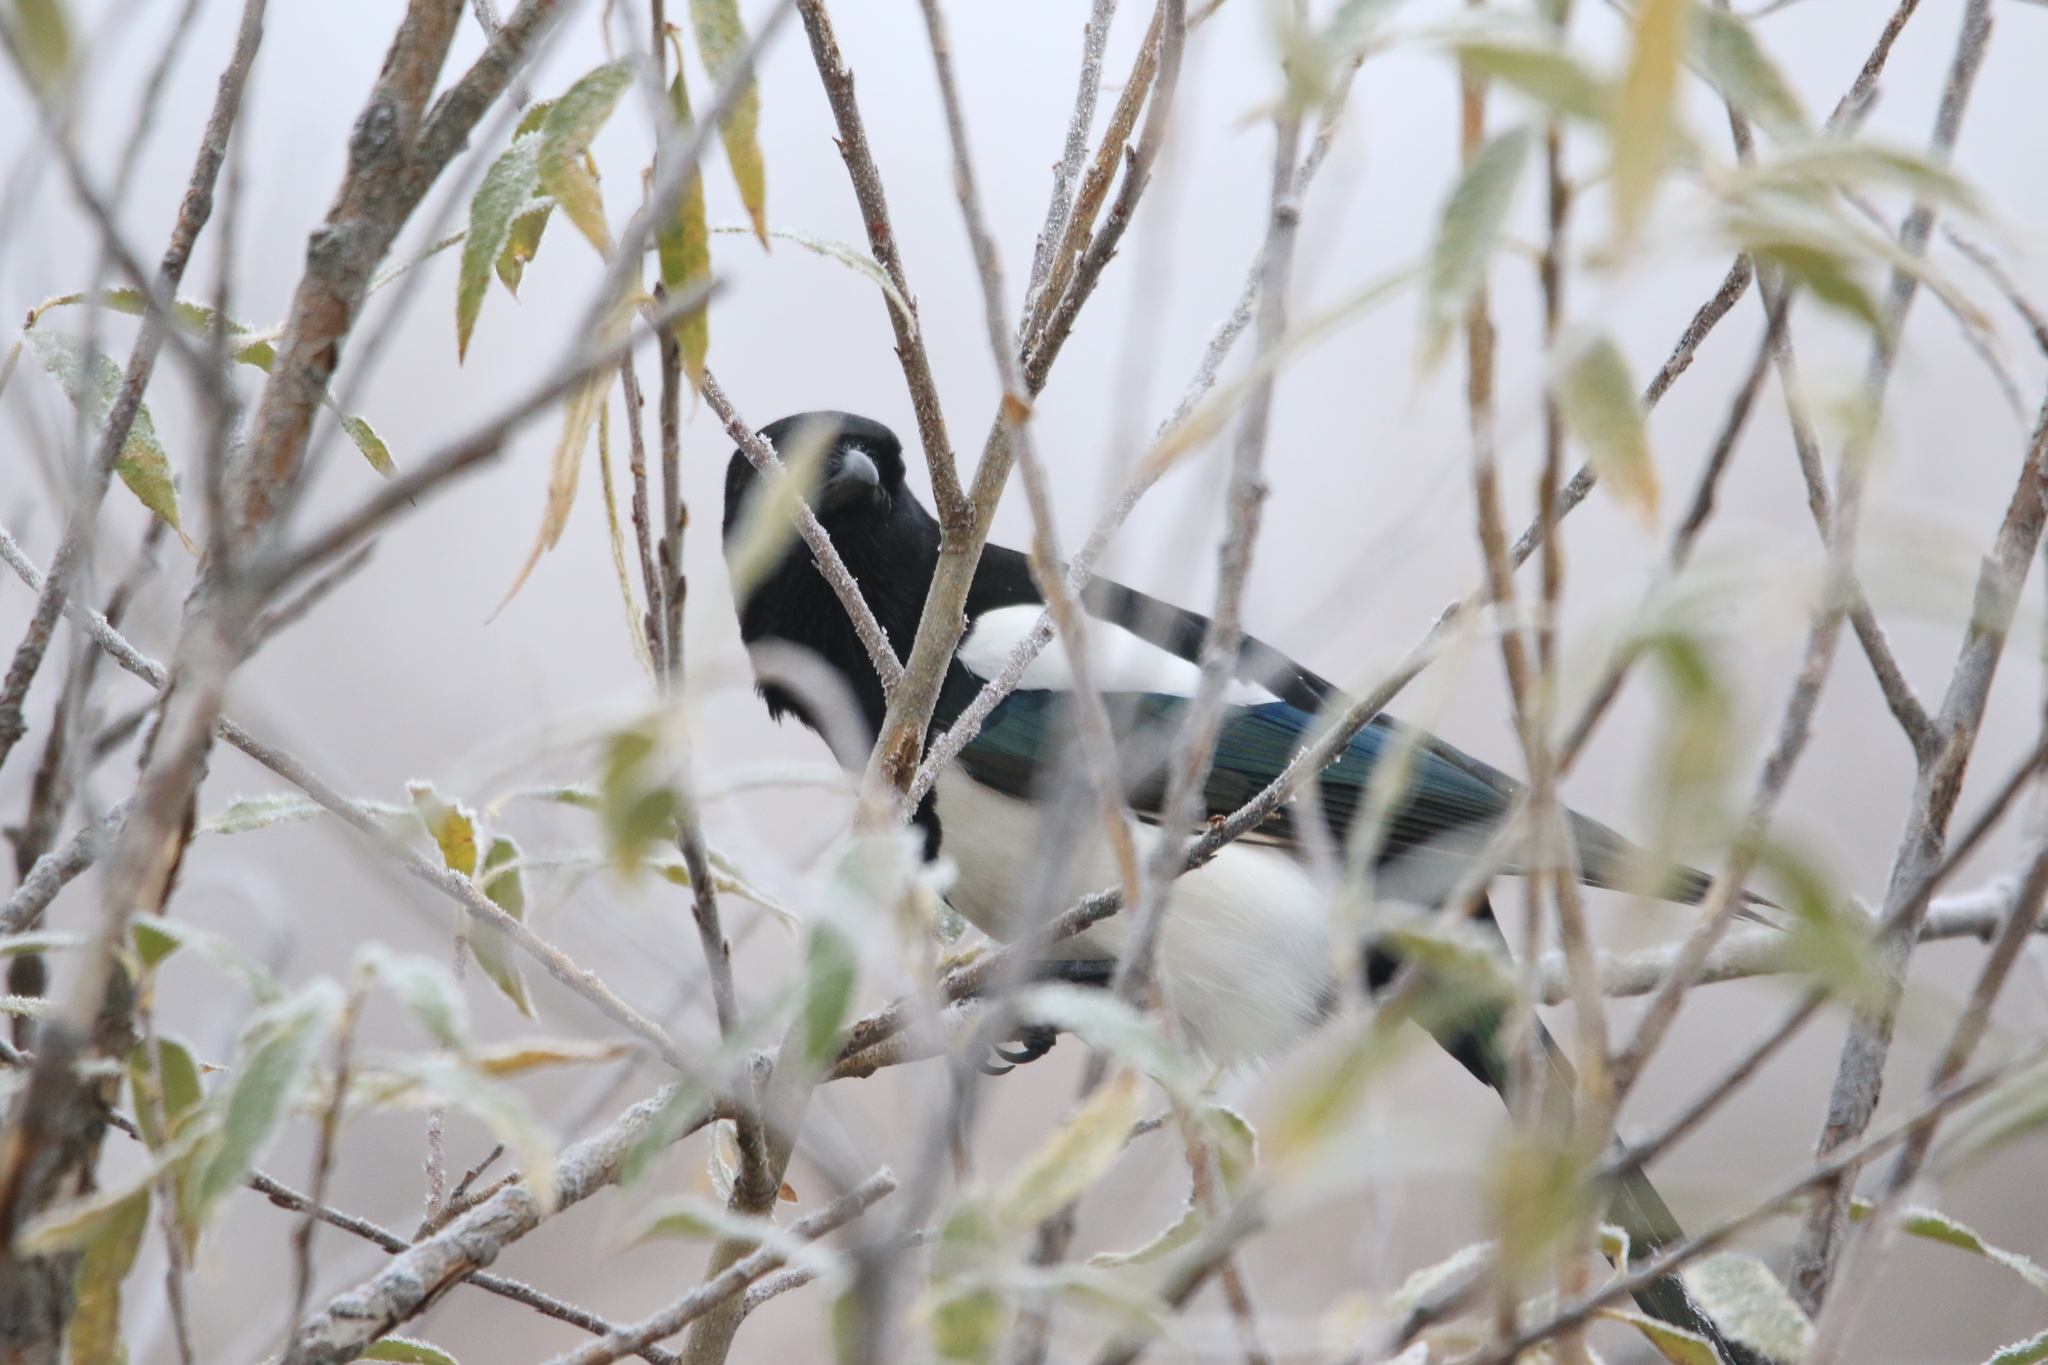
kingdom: Animalia
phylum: Chordata
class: Aves
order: Passeriformes
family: Corvidae
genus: Pica
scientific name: Pica pica
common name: Eurasian magpie
